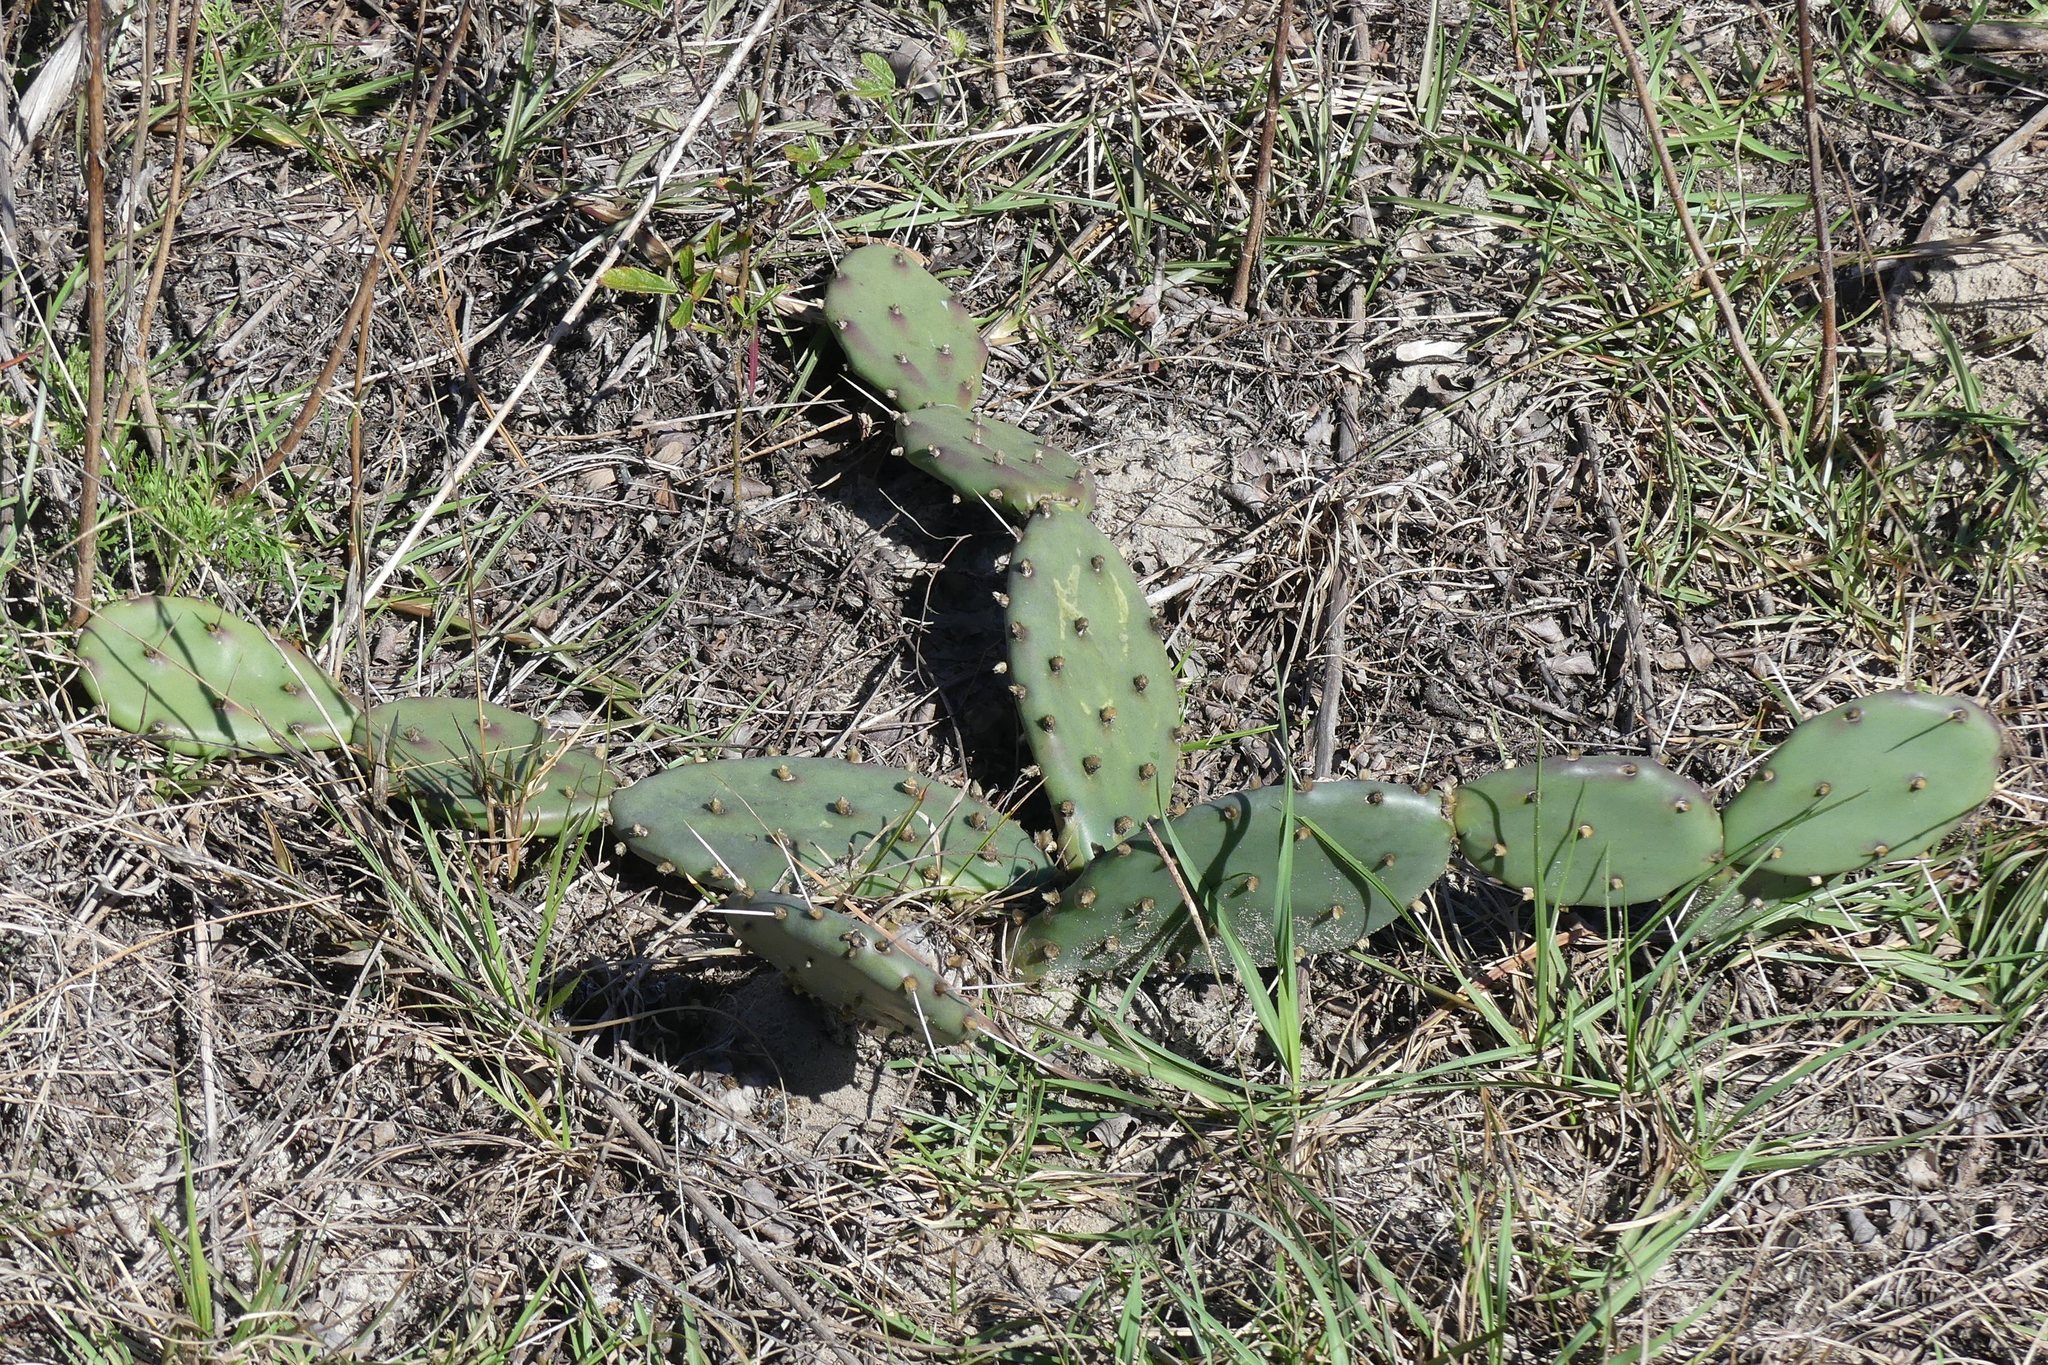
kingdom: Plantae
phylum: Tracheophyta
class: Magnoliopsida
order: Caryophyllales
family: Cactaceae
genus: Opuntia
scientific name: Opuntia austrina
